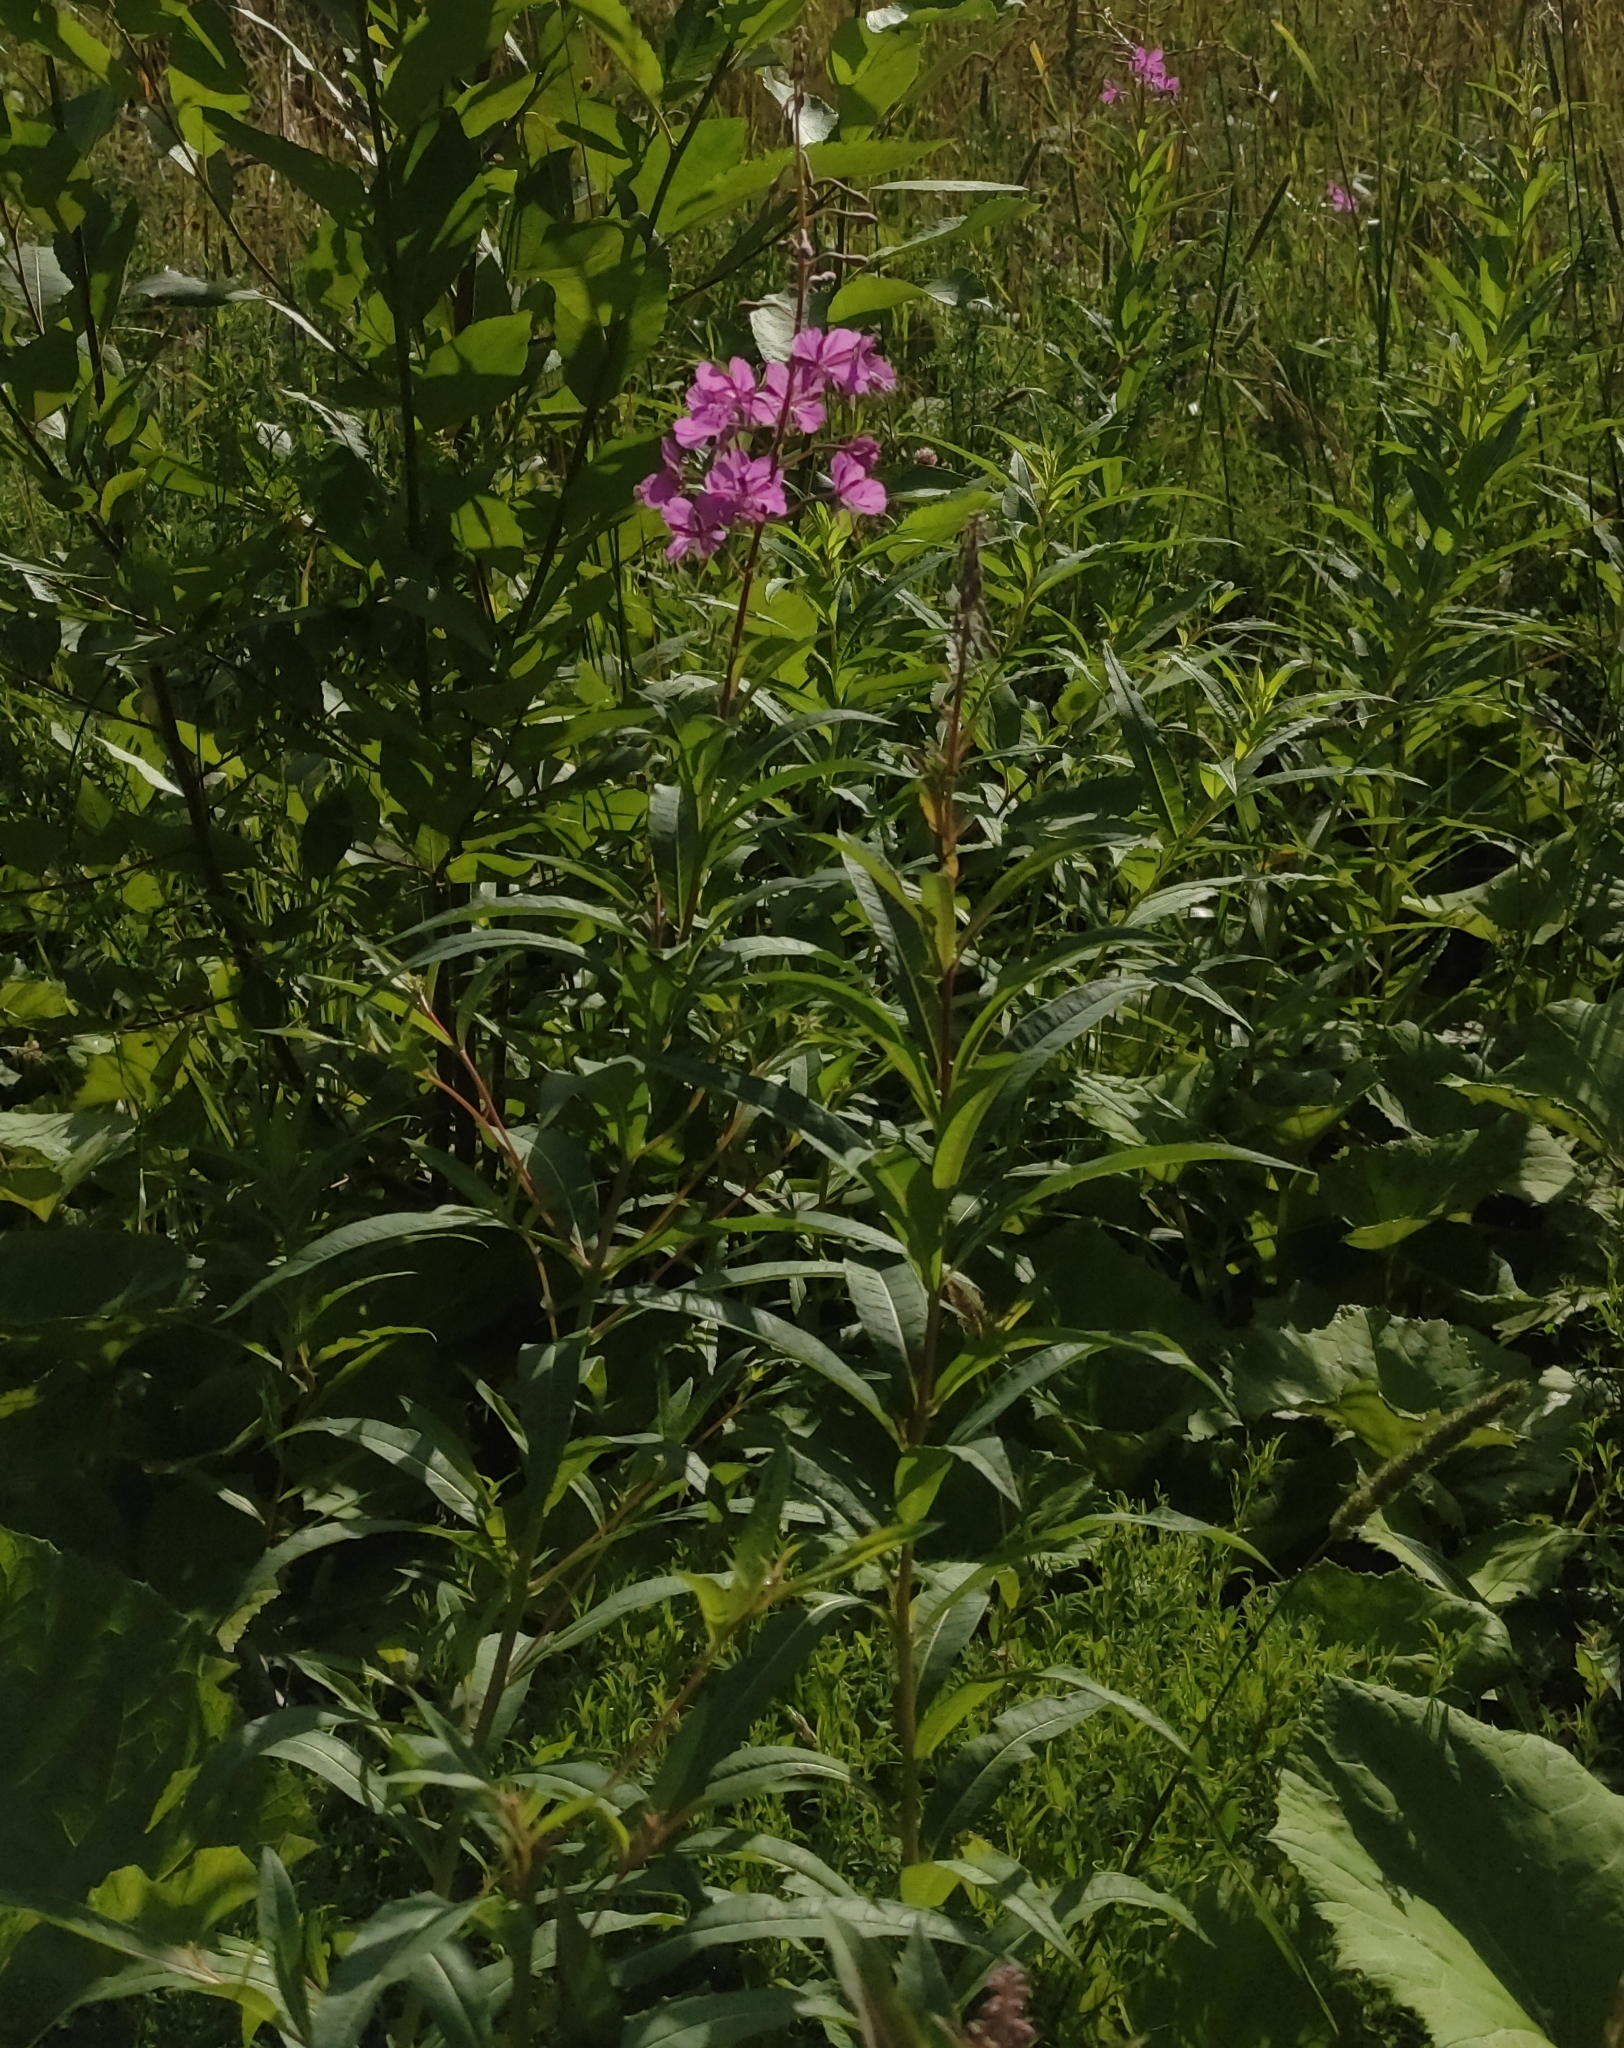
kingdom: Plantae
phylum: Tracheophyta
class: Magnoliopsida
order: Myrtales
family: Onagraceae
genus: Chamaenerion
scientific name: Chamaenerion angustifolium
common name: Fireweed
